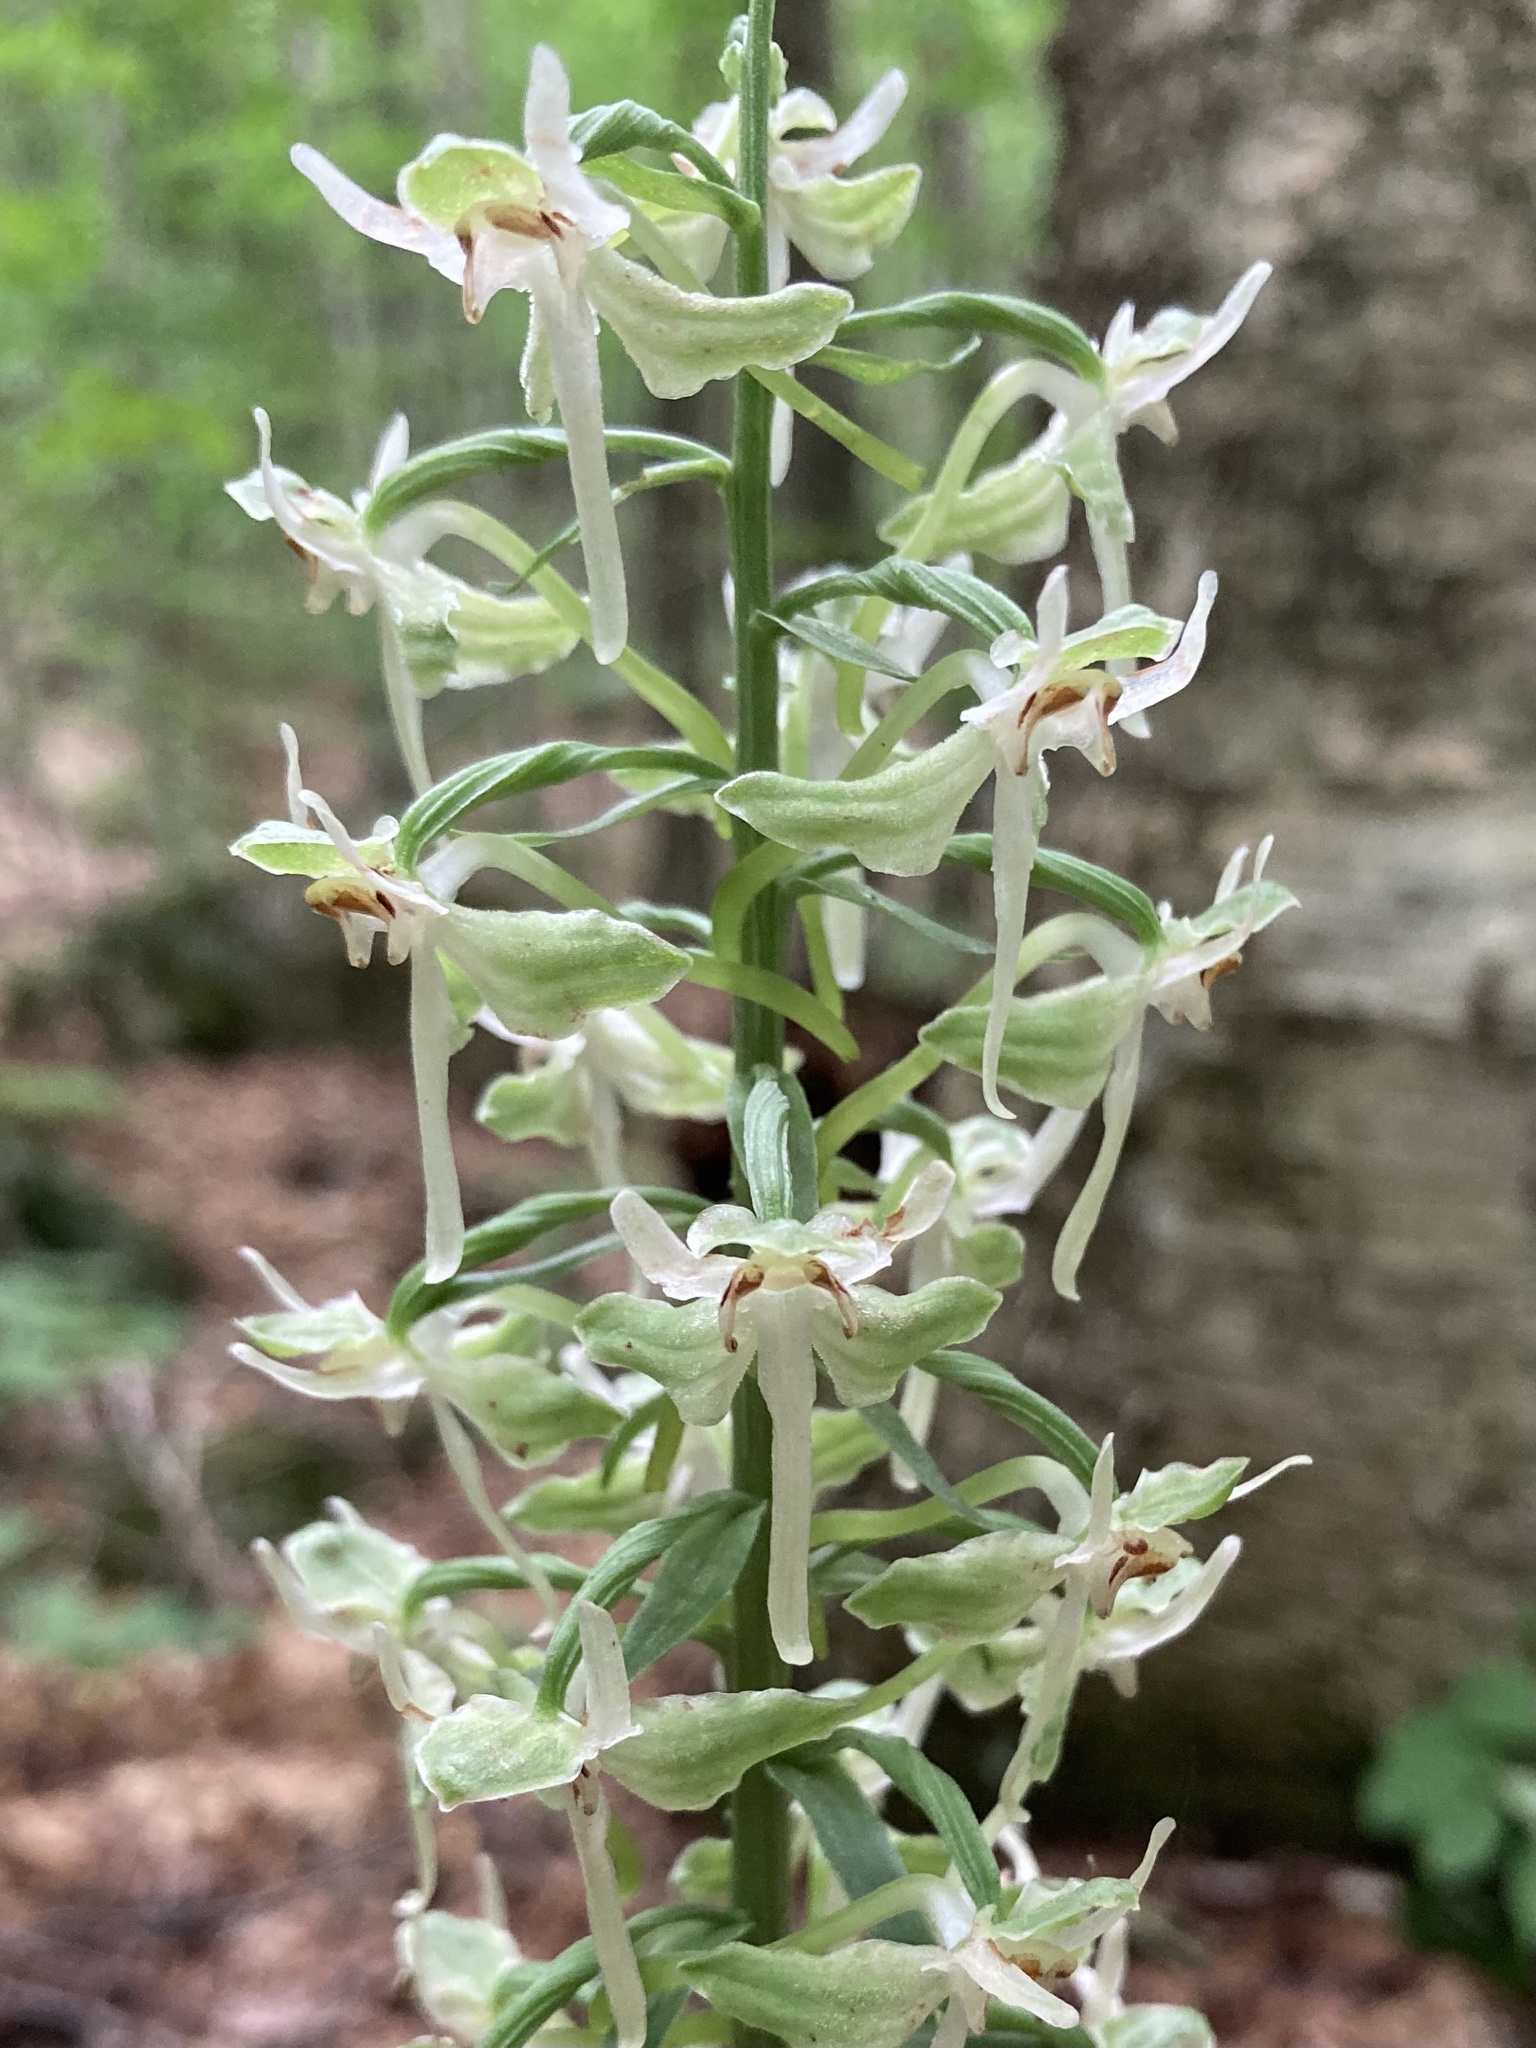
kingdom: Plantae
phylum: Tracheophyta
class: Liliopsida
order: Asparagales
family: Orchidaceae
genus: Platanthera
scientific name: Platanthera orbiculata
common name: Large round-leaved orchid
